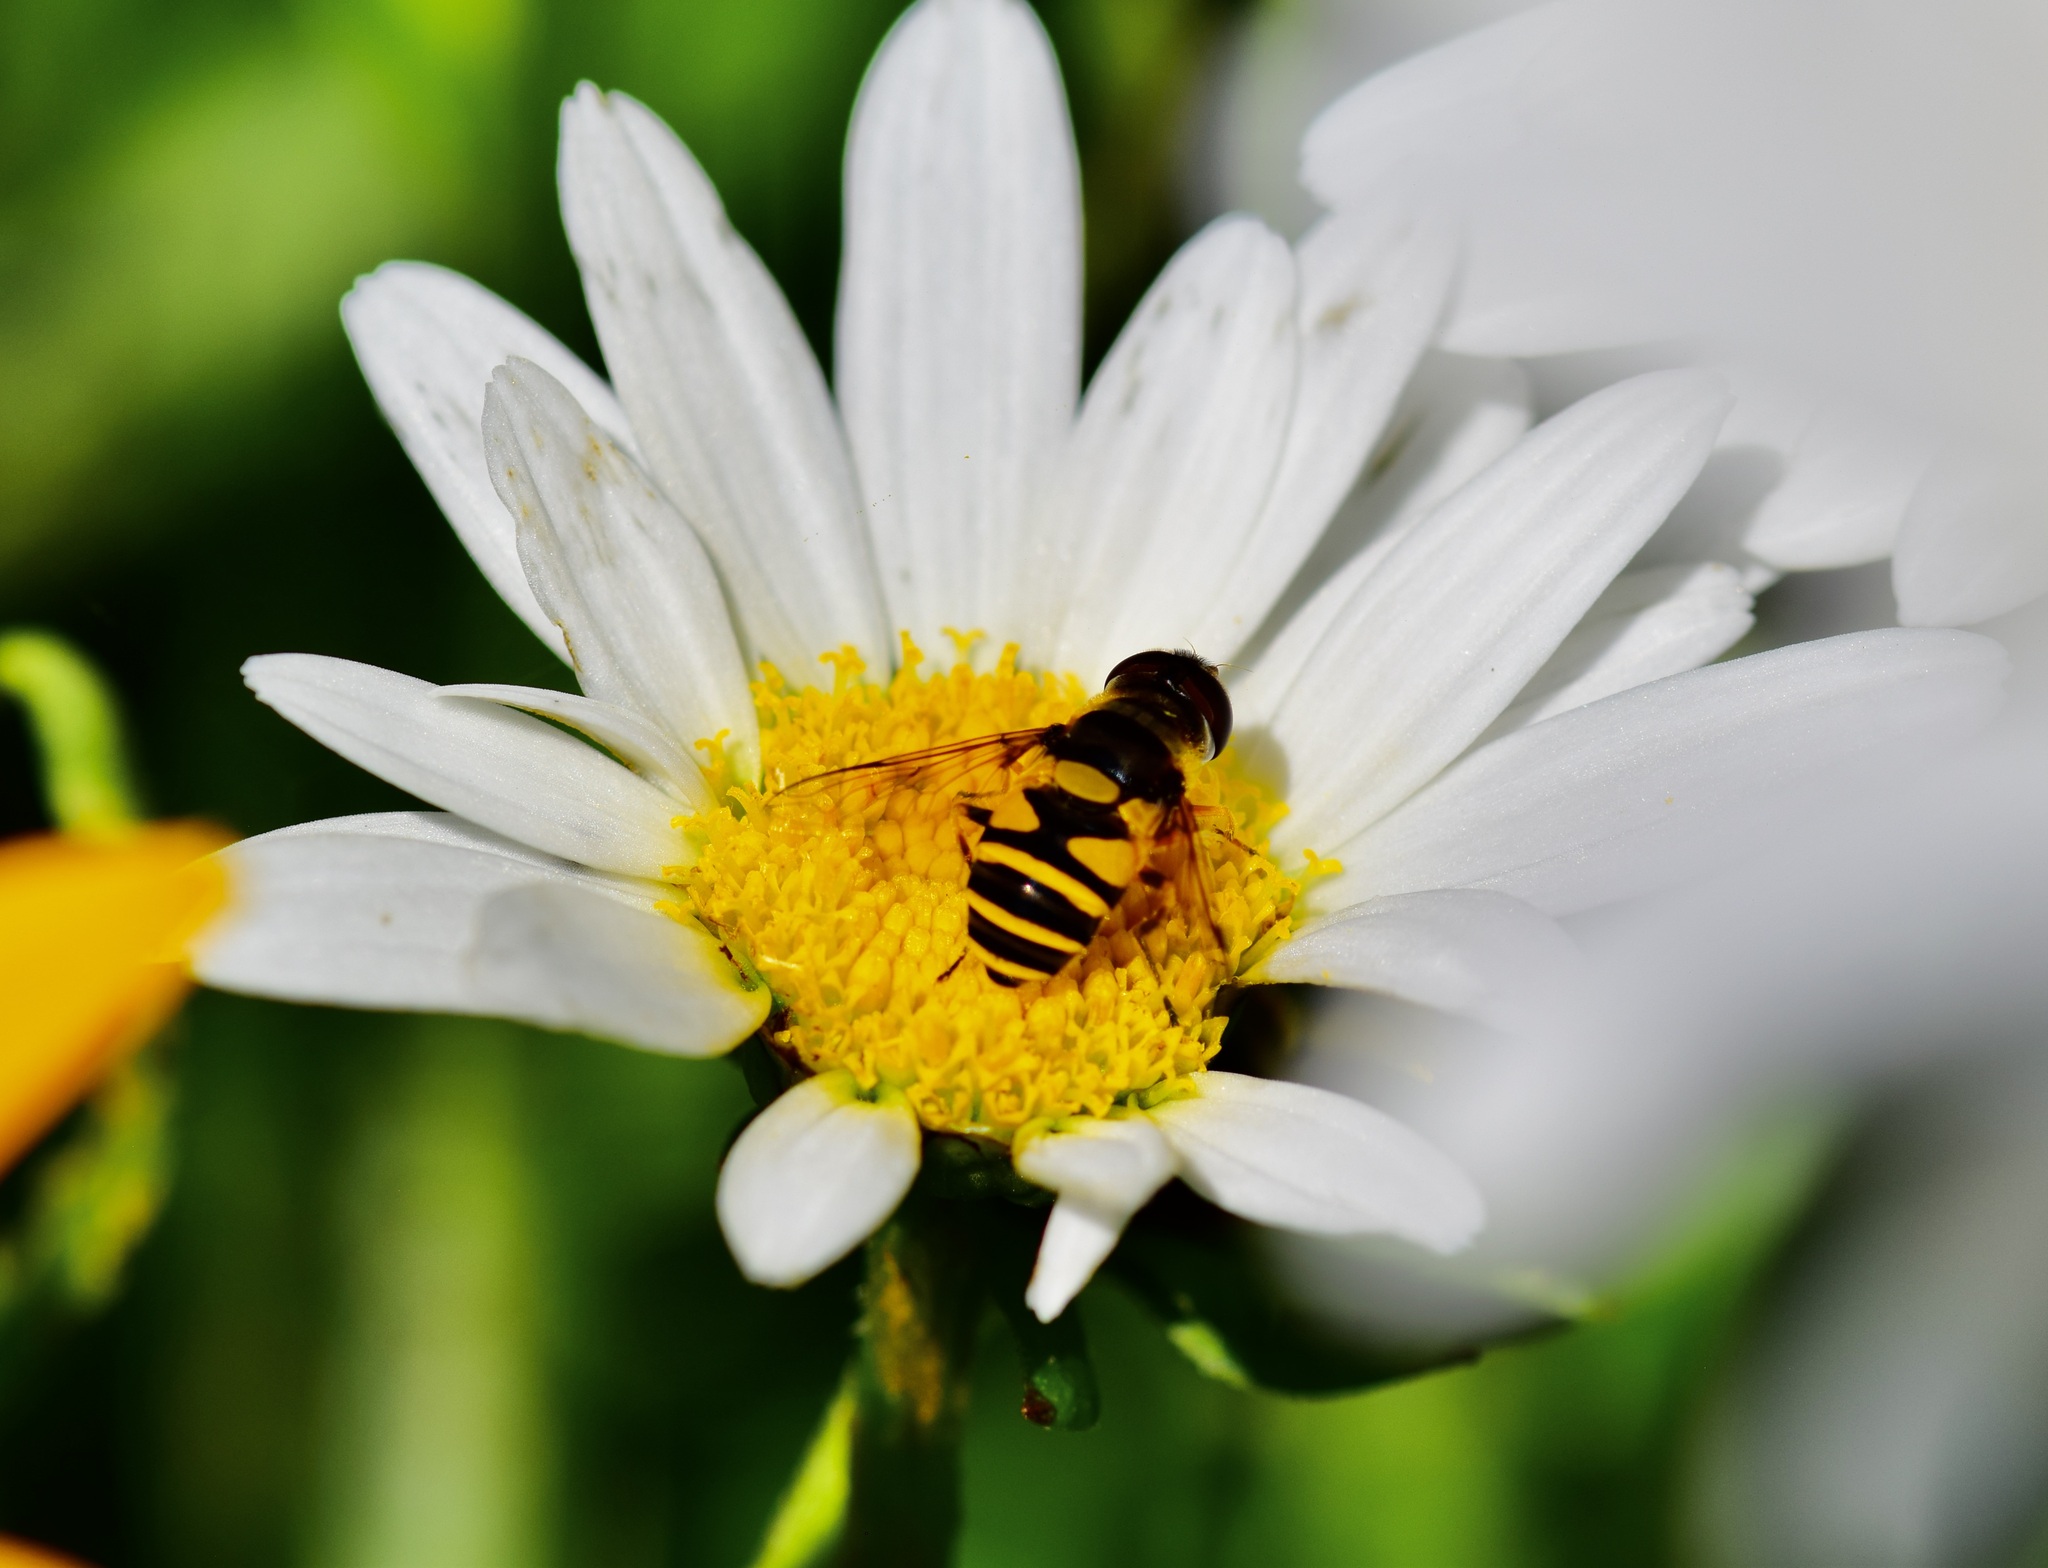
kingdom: Animalia
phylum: Arthropoda
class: Insecta
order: Diptera
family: Syrphidae
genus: Eristalis
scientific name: Eristalis transversa
